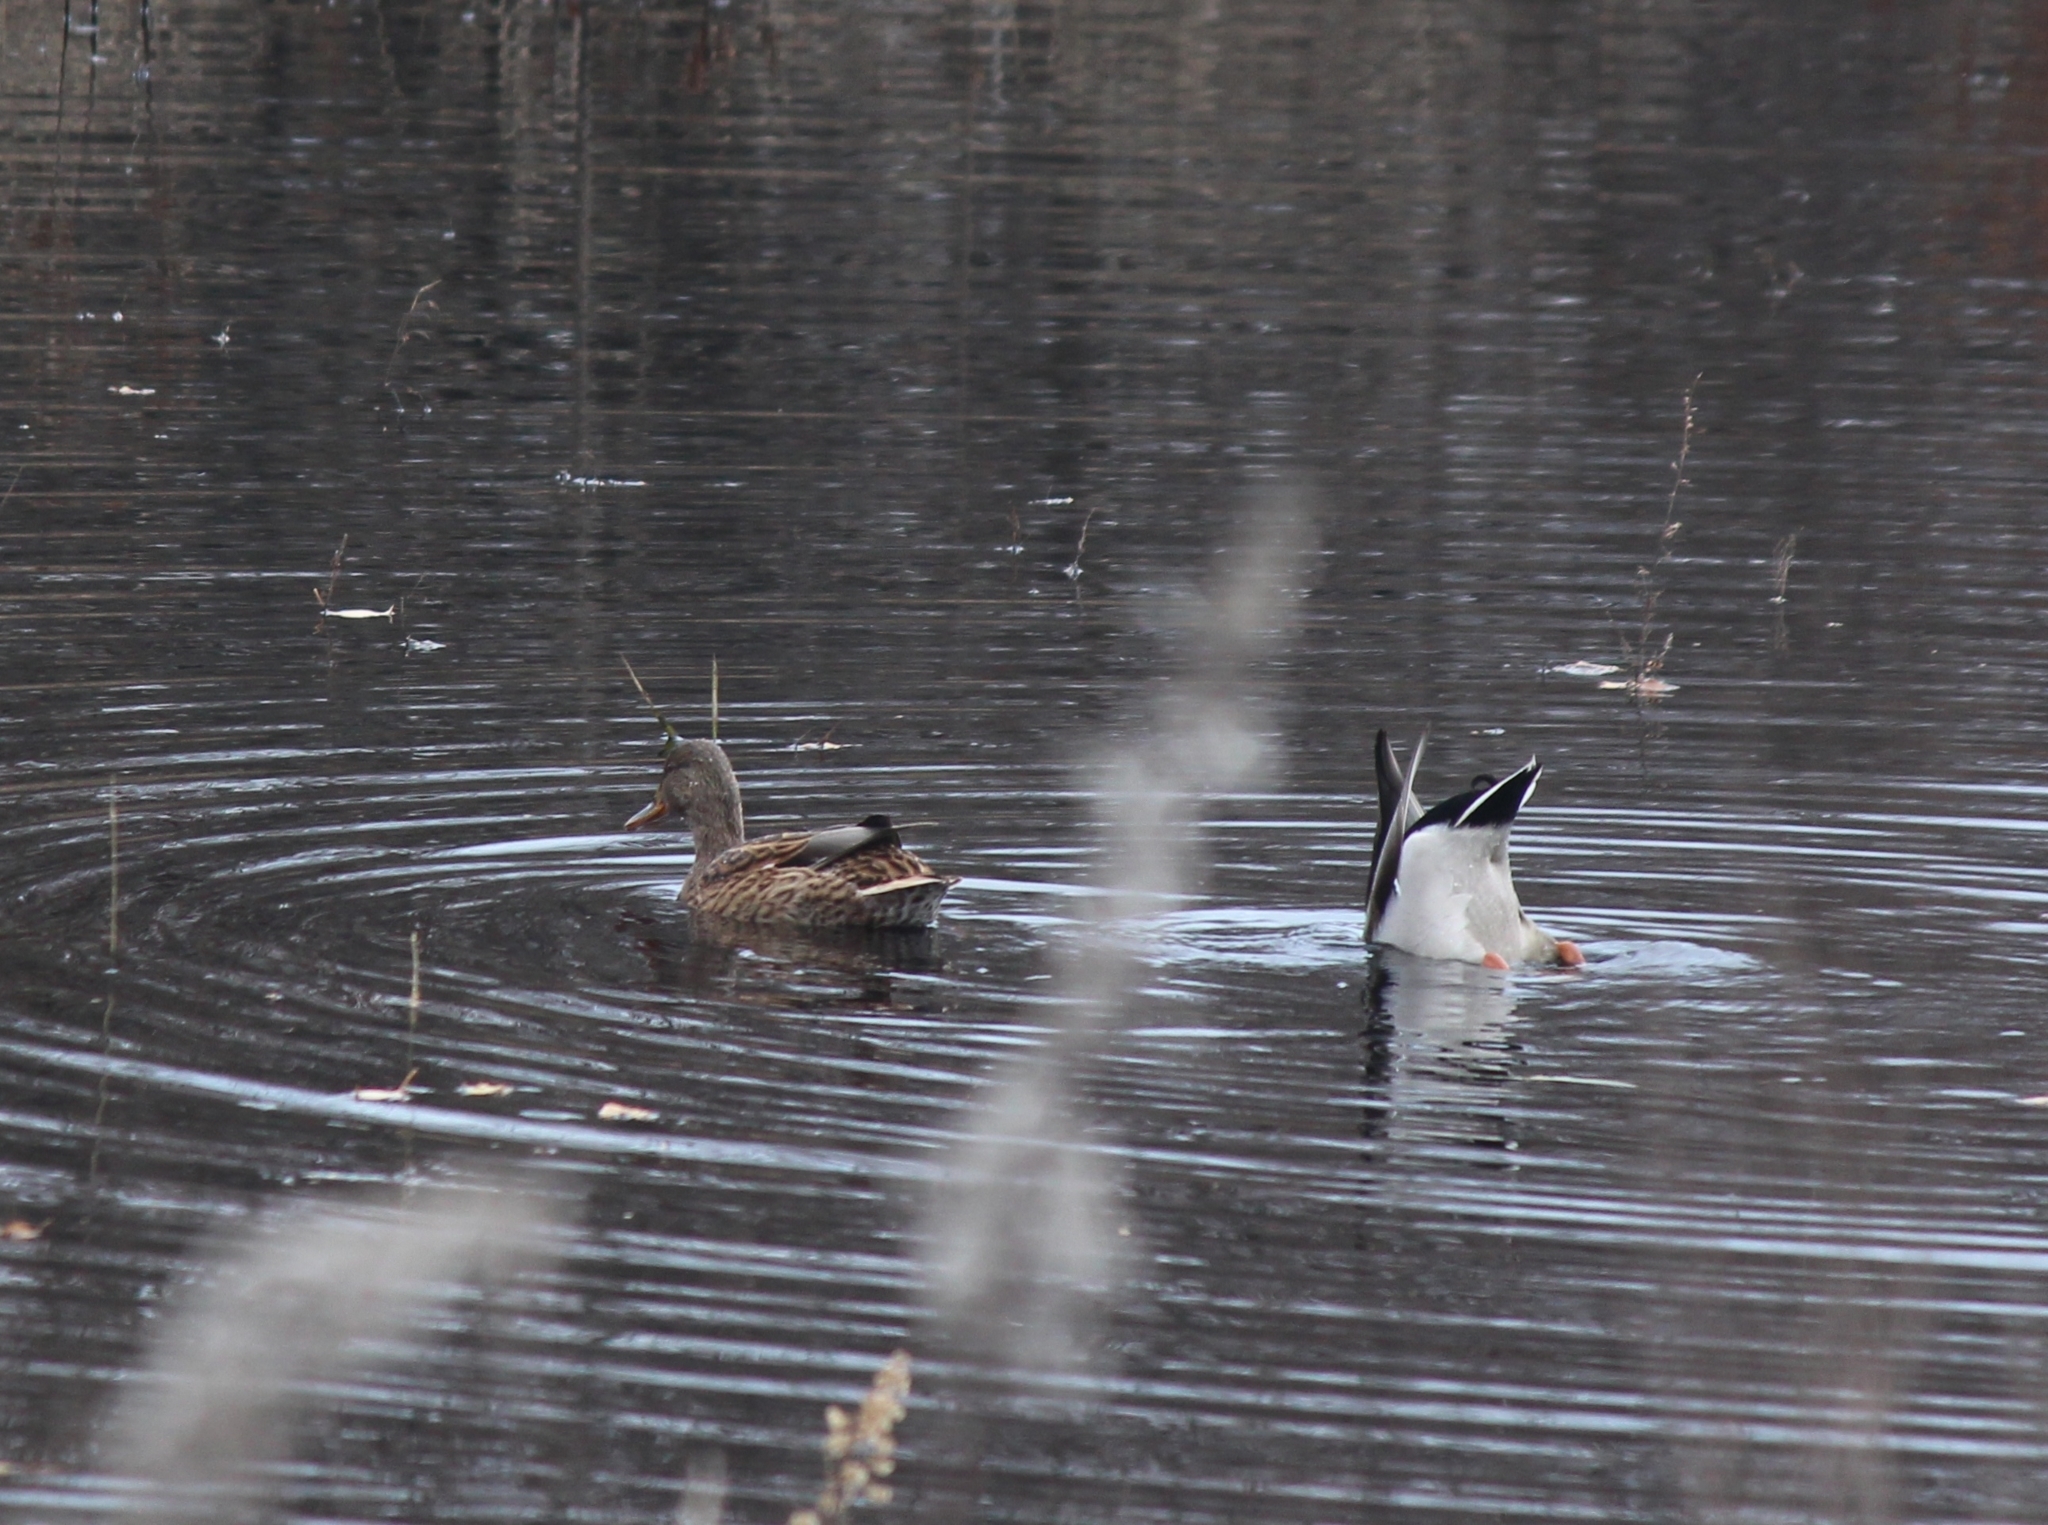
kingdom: Animalia
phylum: Chordata
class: Aves
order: Anseriformes
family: Anatidae
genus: Anas
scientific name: Anas platyrhynchos
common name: Mallard
